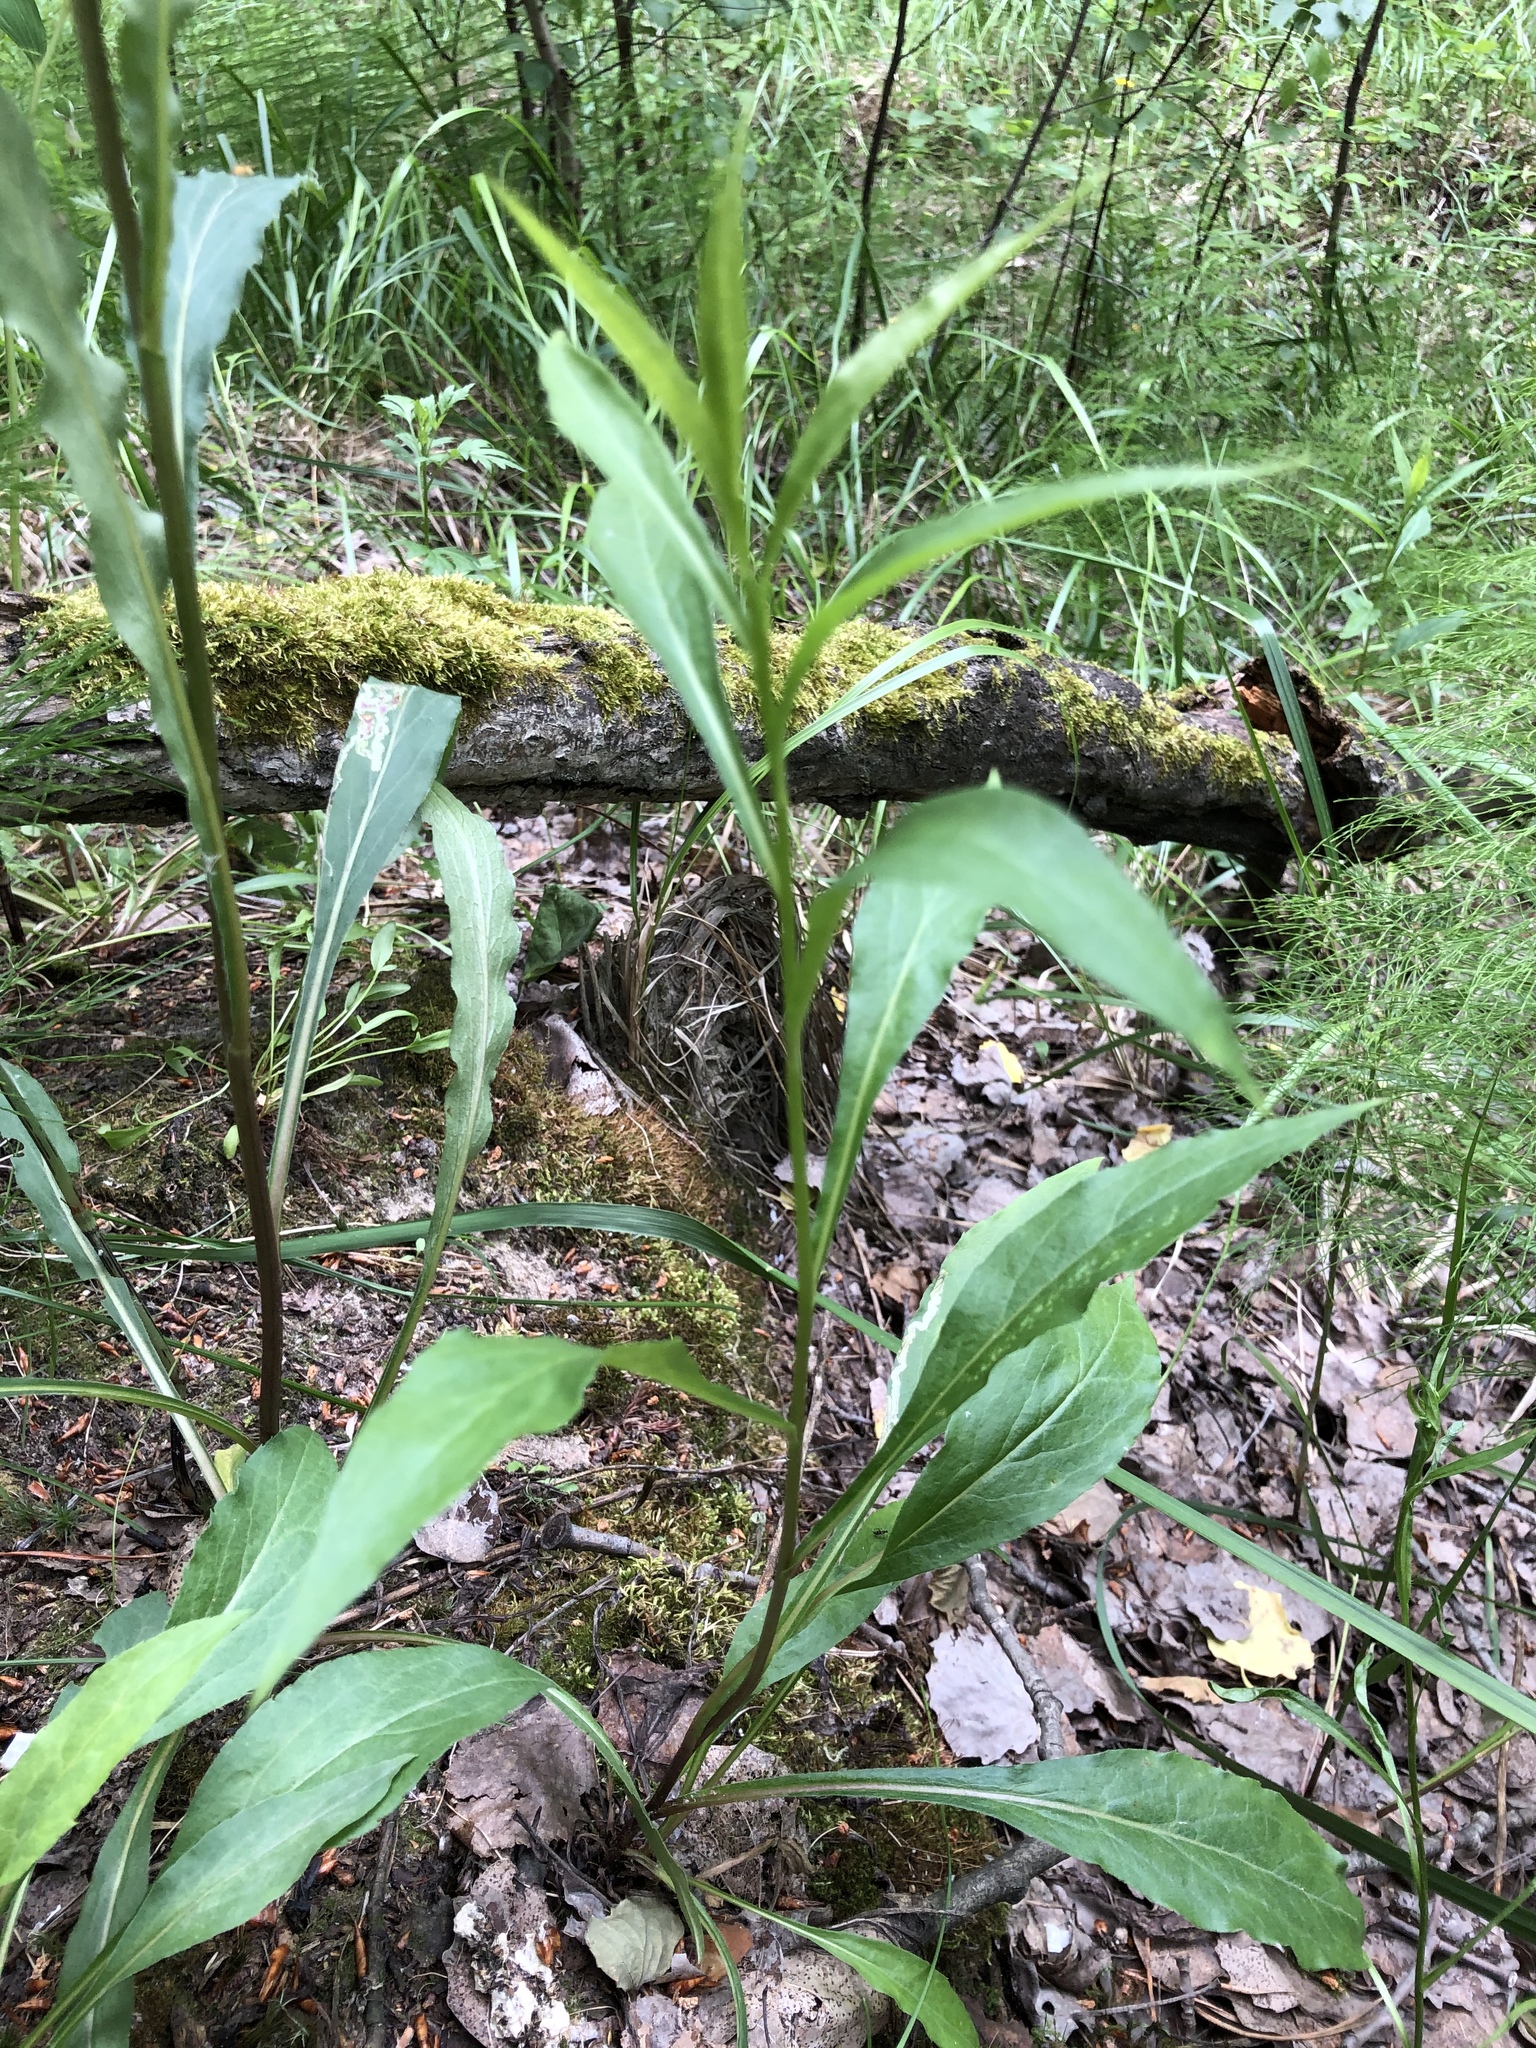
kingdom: Plantae
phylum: Tracheophyta
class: Magnoliopsida
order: Asterales
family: Asteraceae
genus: Solidago
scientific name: Solidago virgaurea
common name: Goldenrod
